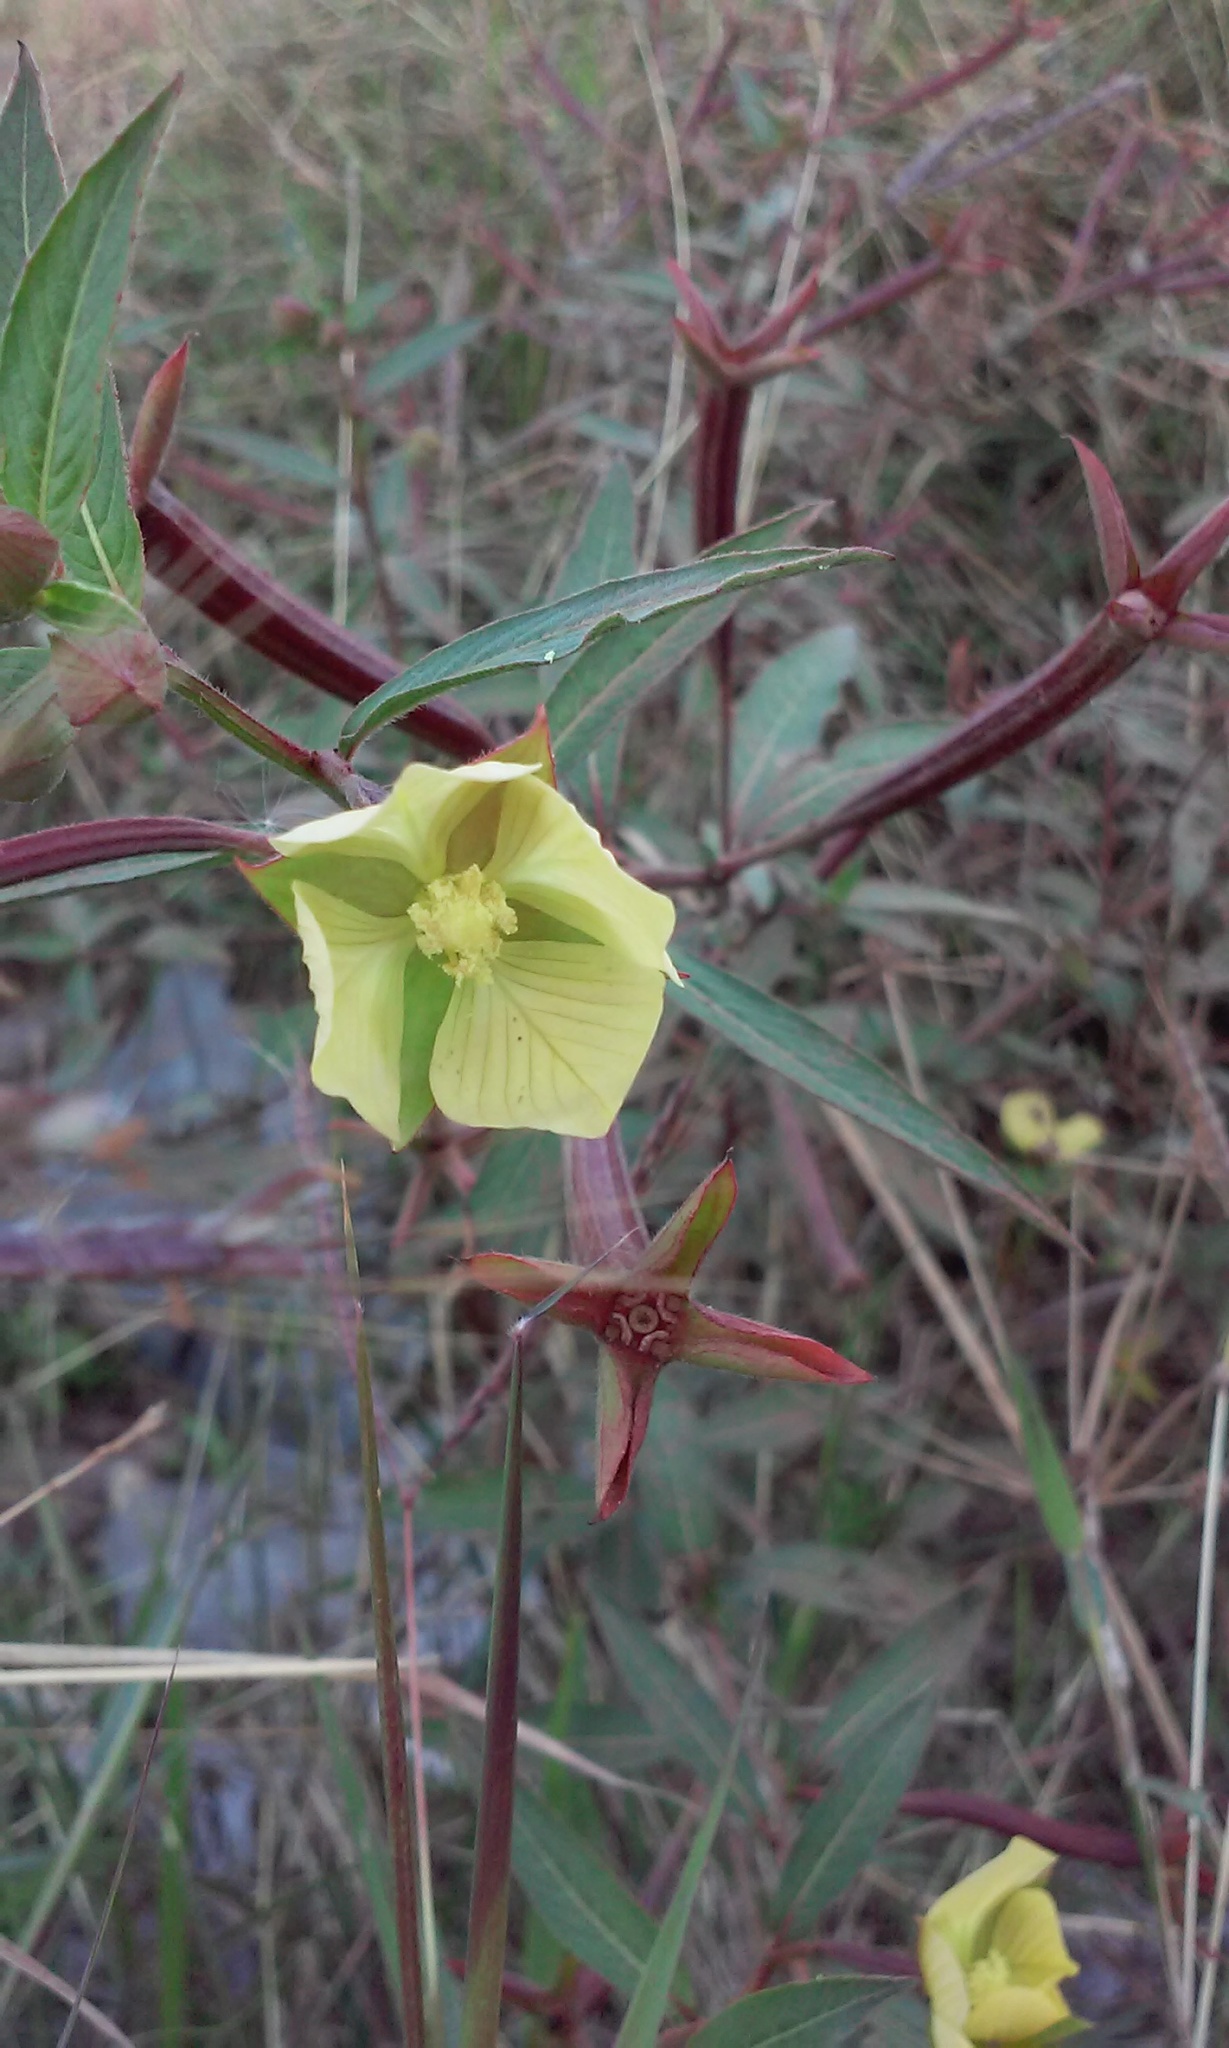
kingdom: Plantae
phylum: Tracheophyta
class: Magnoliopsida
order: Myrtales
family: Onagraceae
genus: Ludwigia
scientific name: Ludwigia octovalvis
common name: Water-primrose
